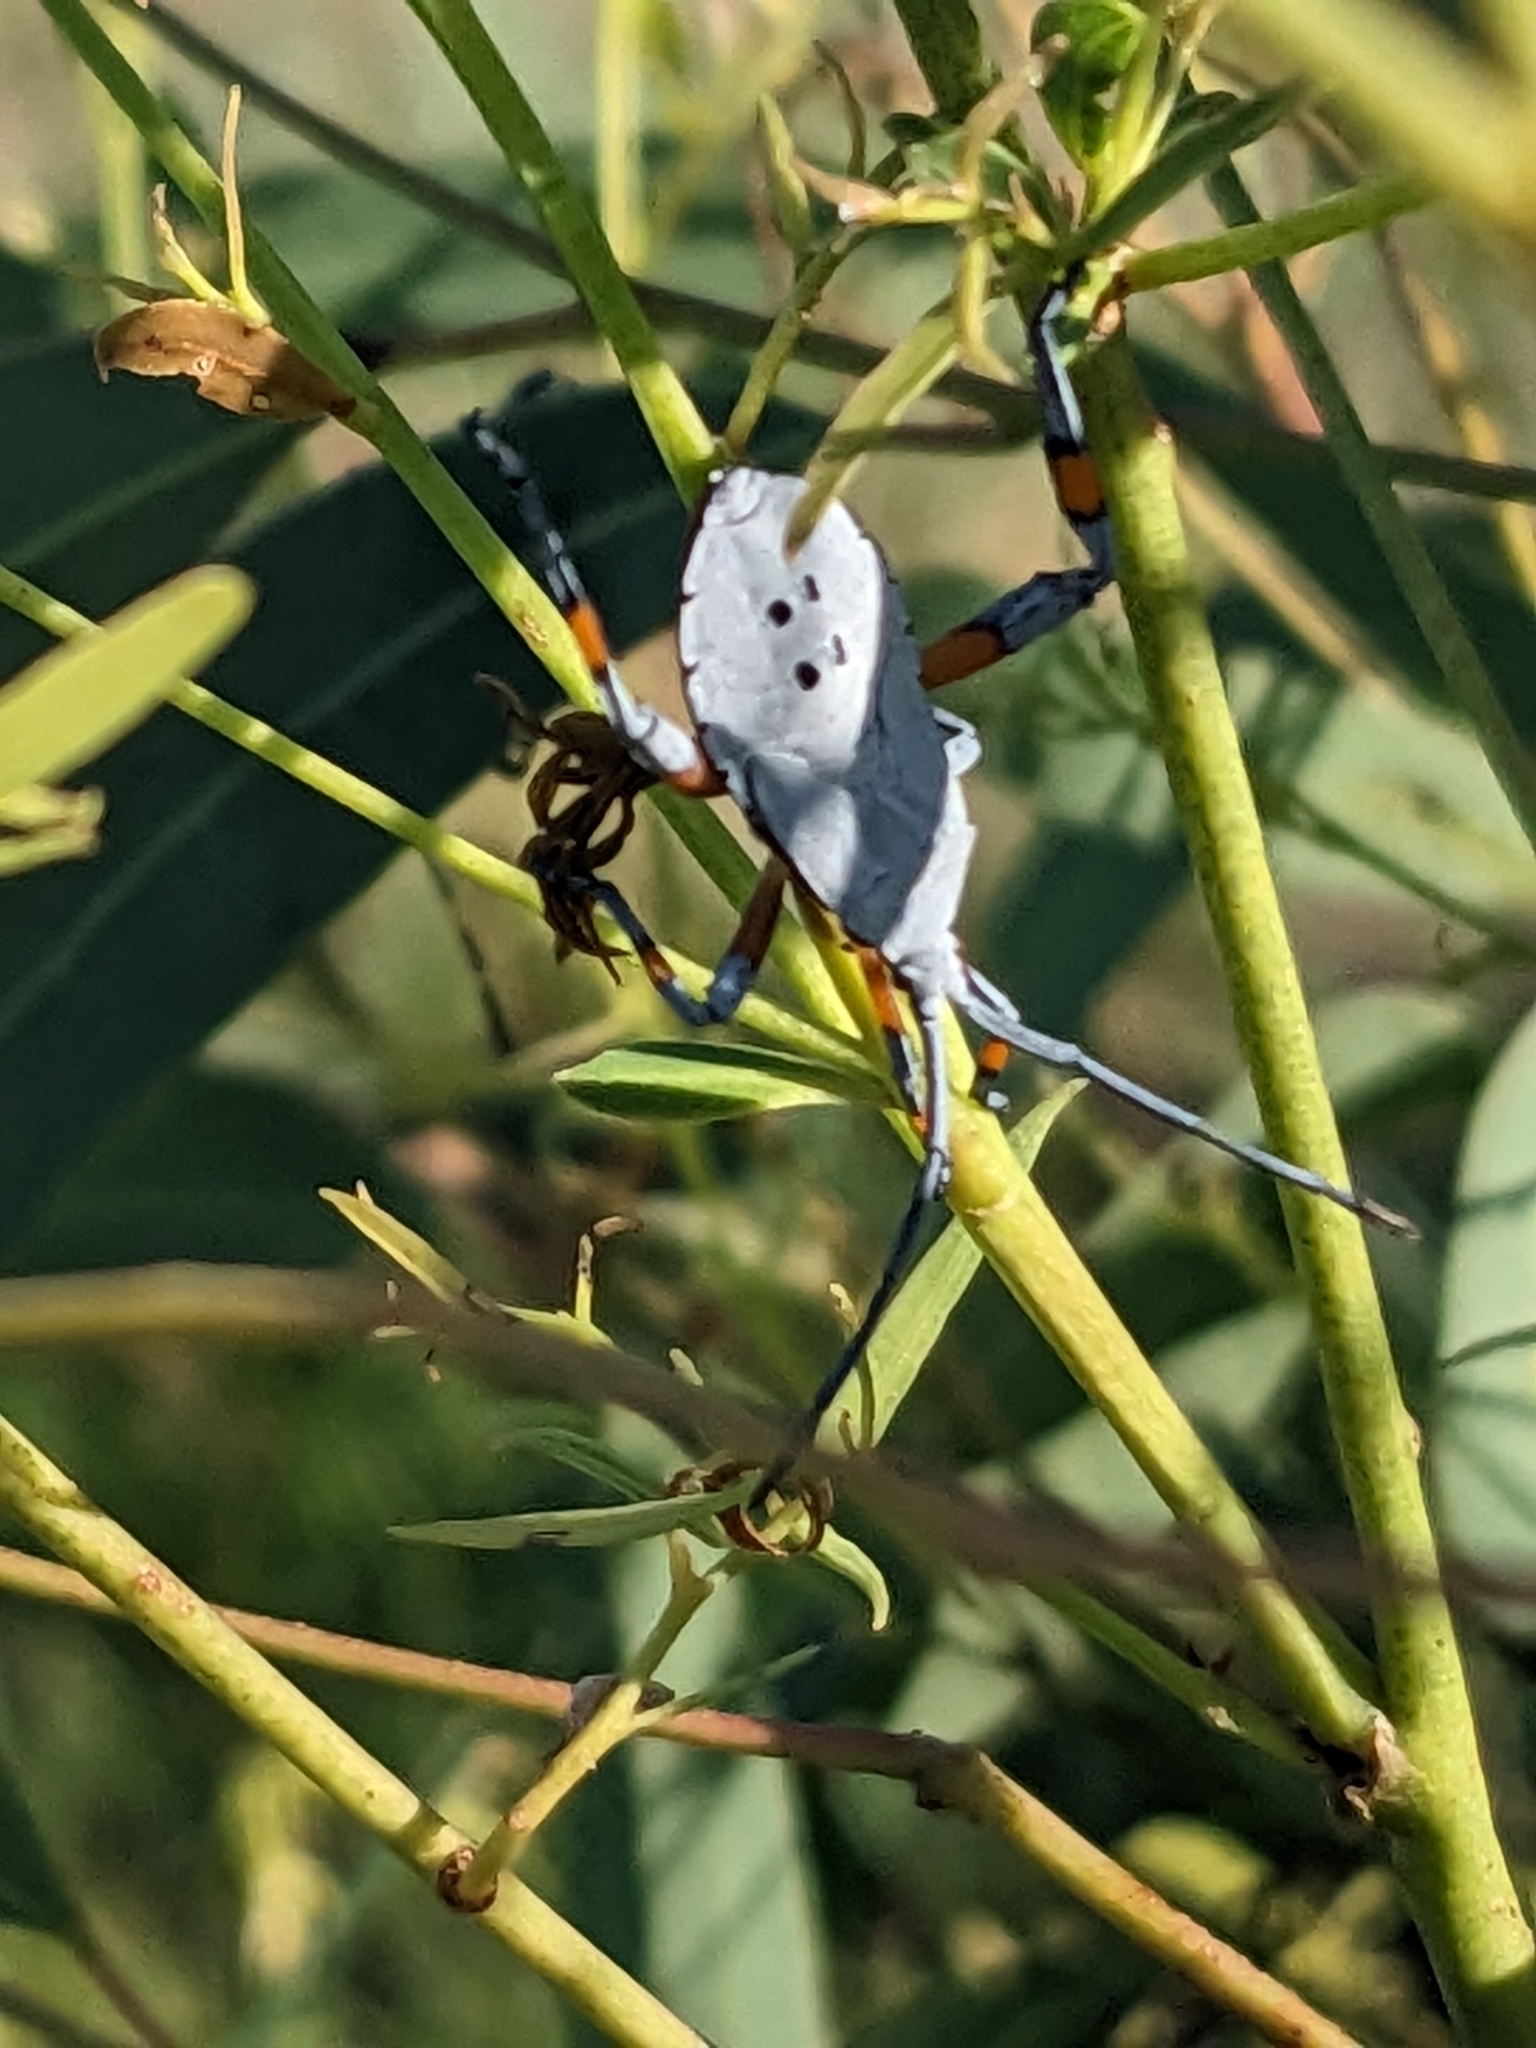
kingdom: Animalia
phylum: Arthropoda
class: Insecta
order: Hemiptera
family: Coreidae
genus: Amorbus
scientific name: Amorbus robustus
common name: Common gum-tree bug
